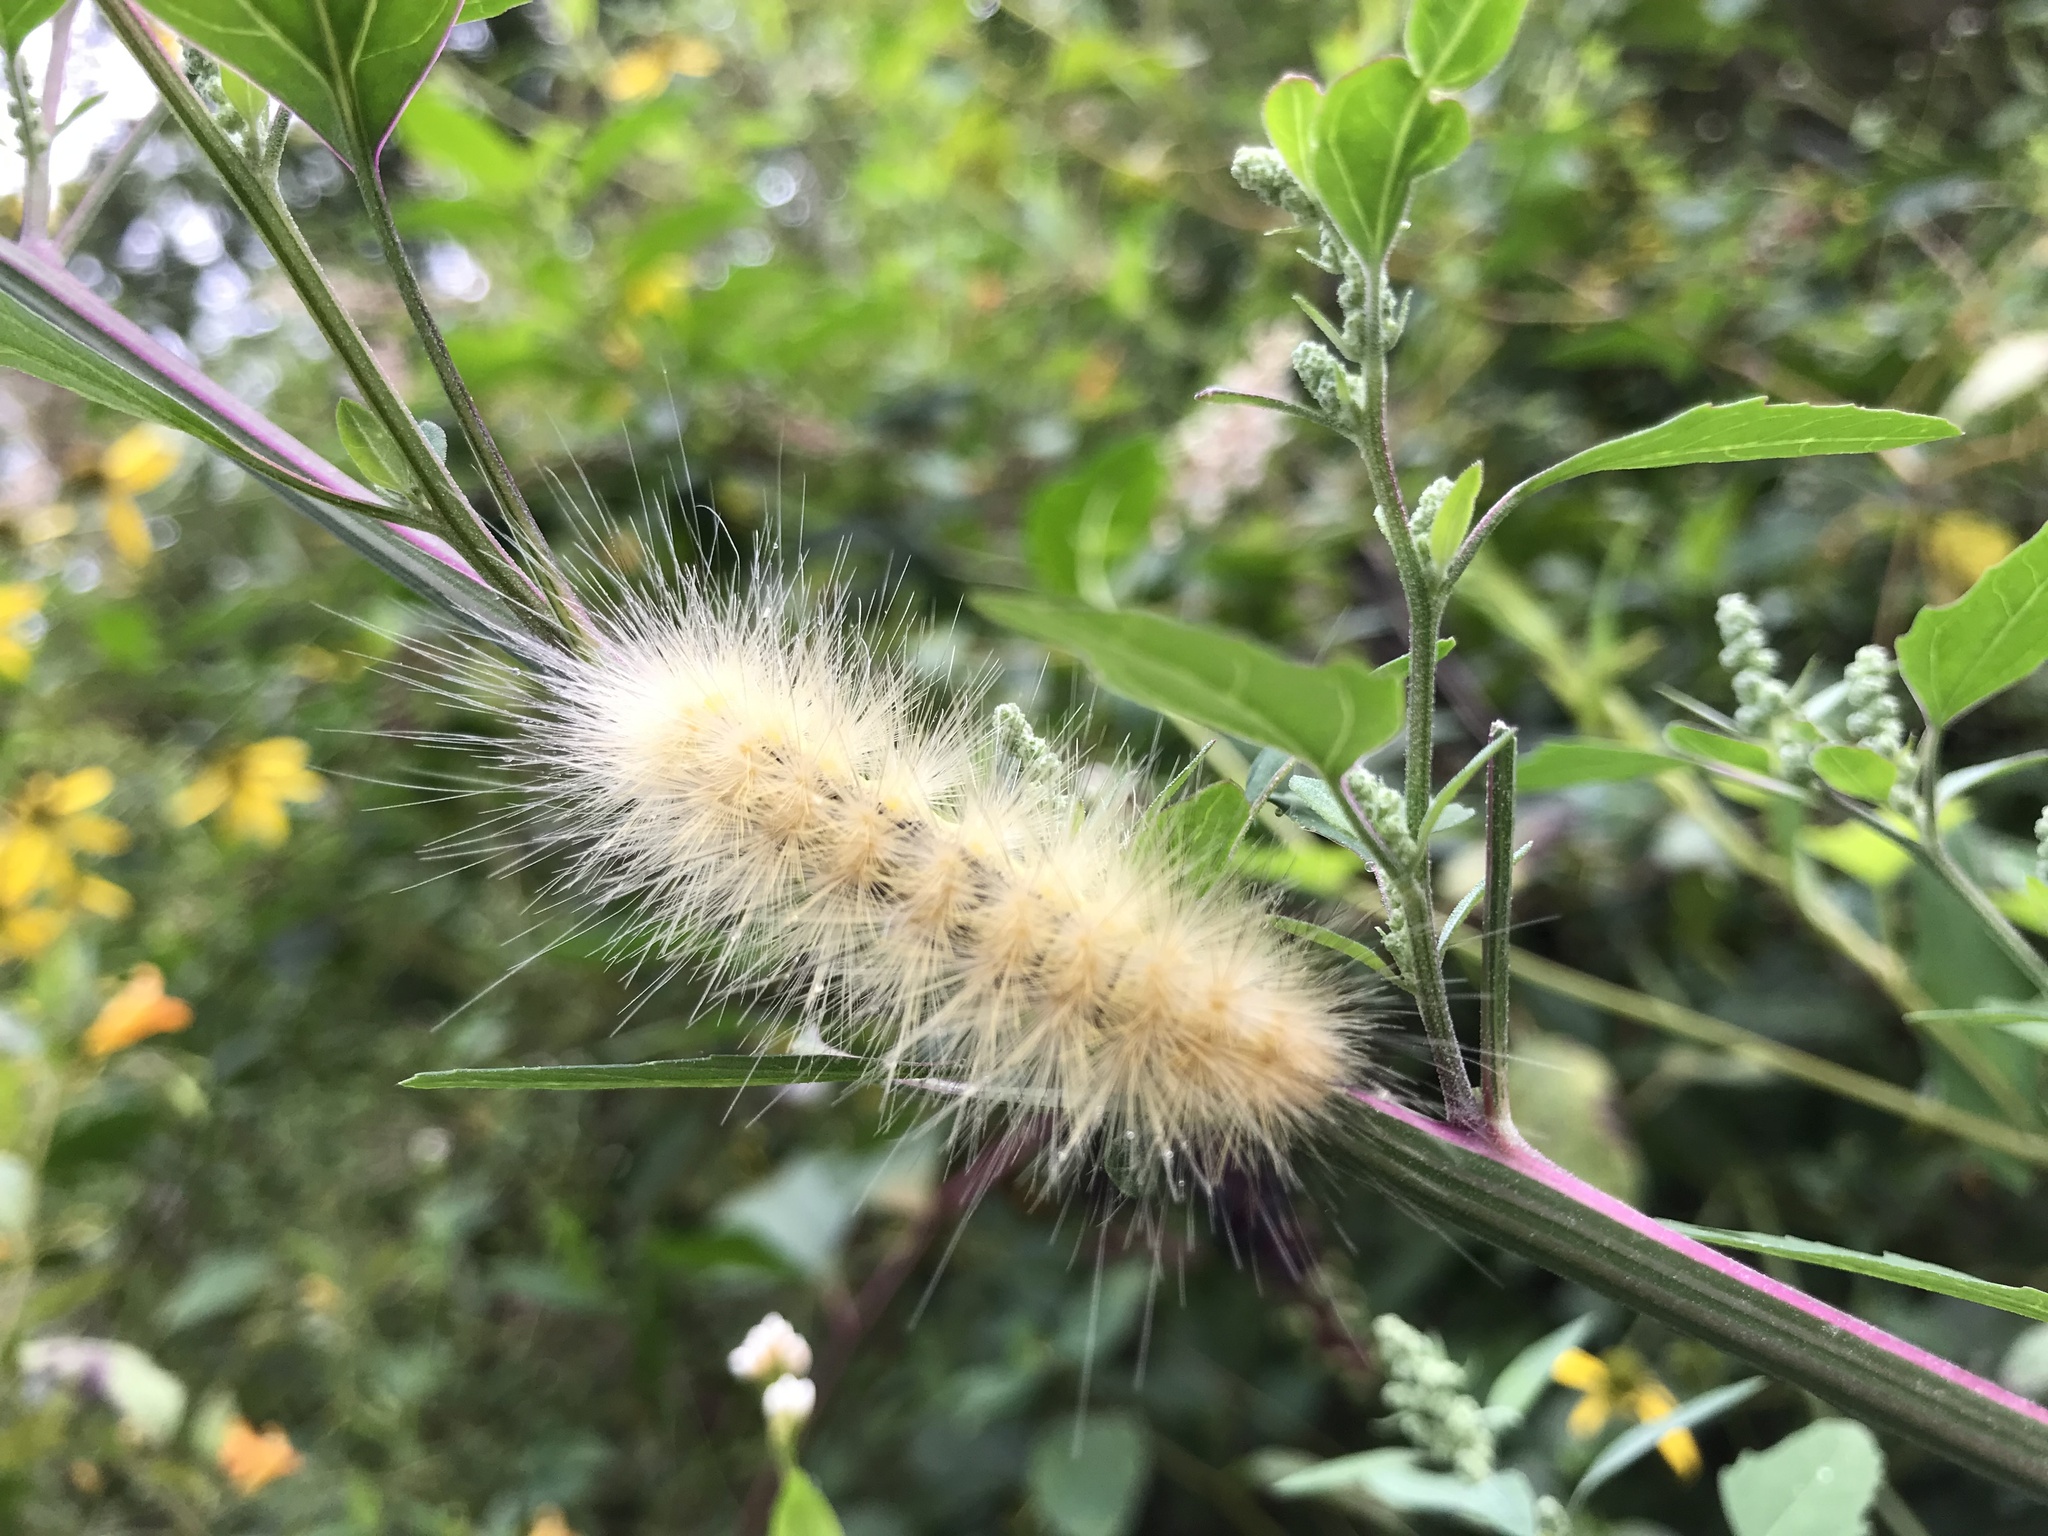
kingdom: Animalia
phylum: Arthropoda
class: Insecta
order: Lepidoptera
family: Erebidae
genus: Spilosoma
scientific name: Spilosoma virginica
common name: Virginia tiger moth
